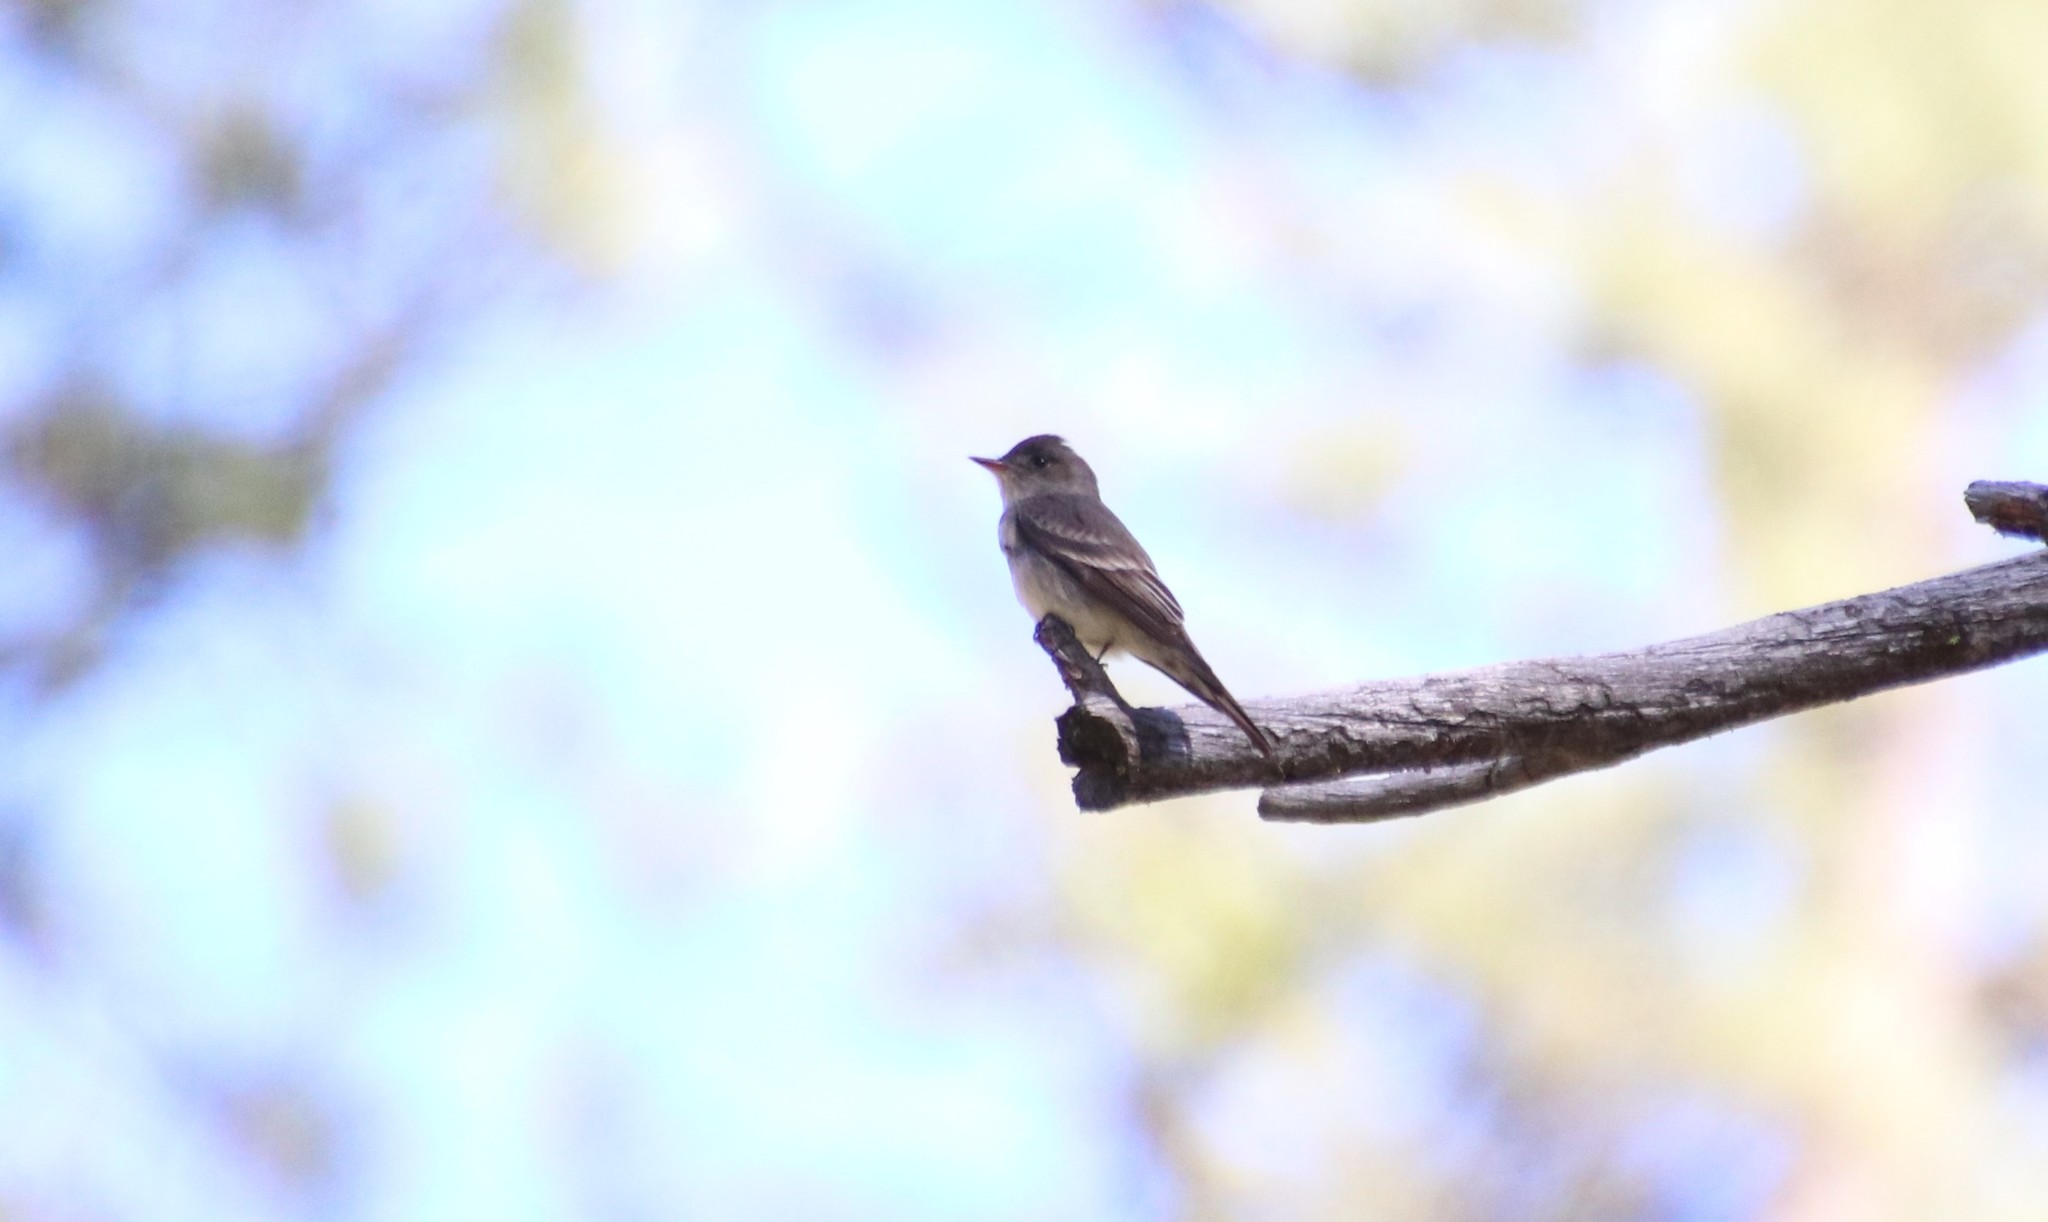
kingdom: Animalia
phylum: Chordata
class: Aves
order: Passeriformes
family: Tyrannidae
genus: Contopus
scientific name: Contopus sordidulus
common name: Western wood-pewee
